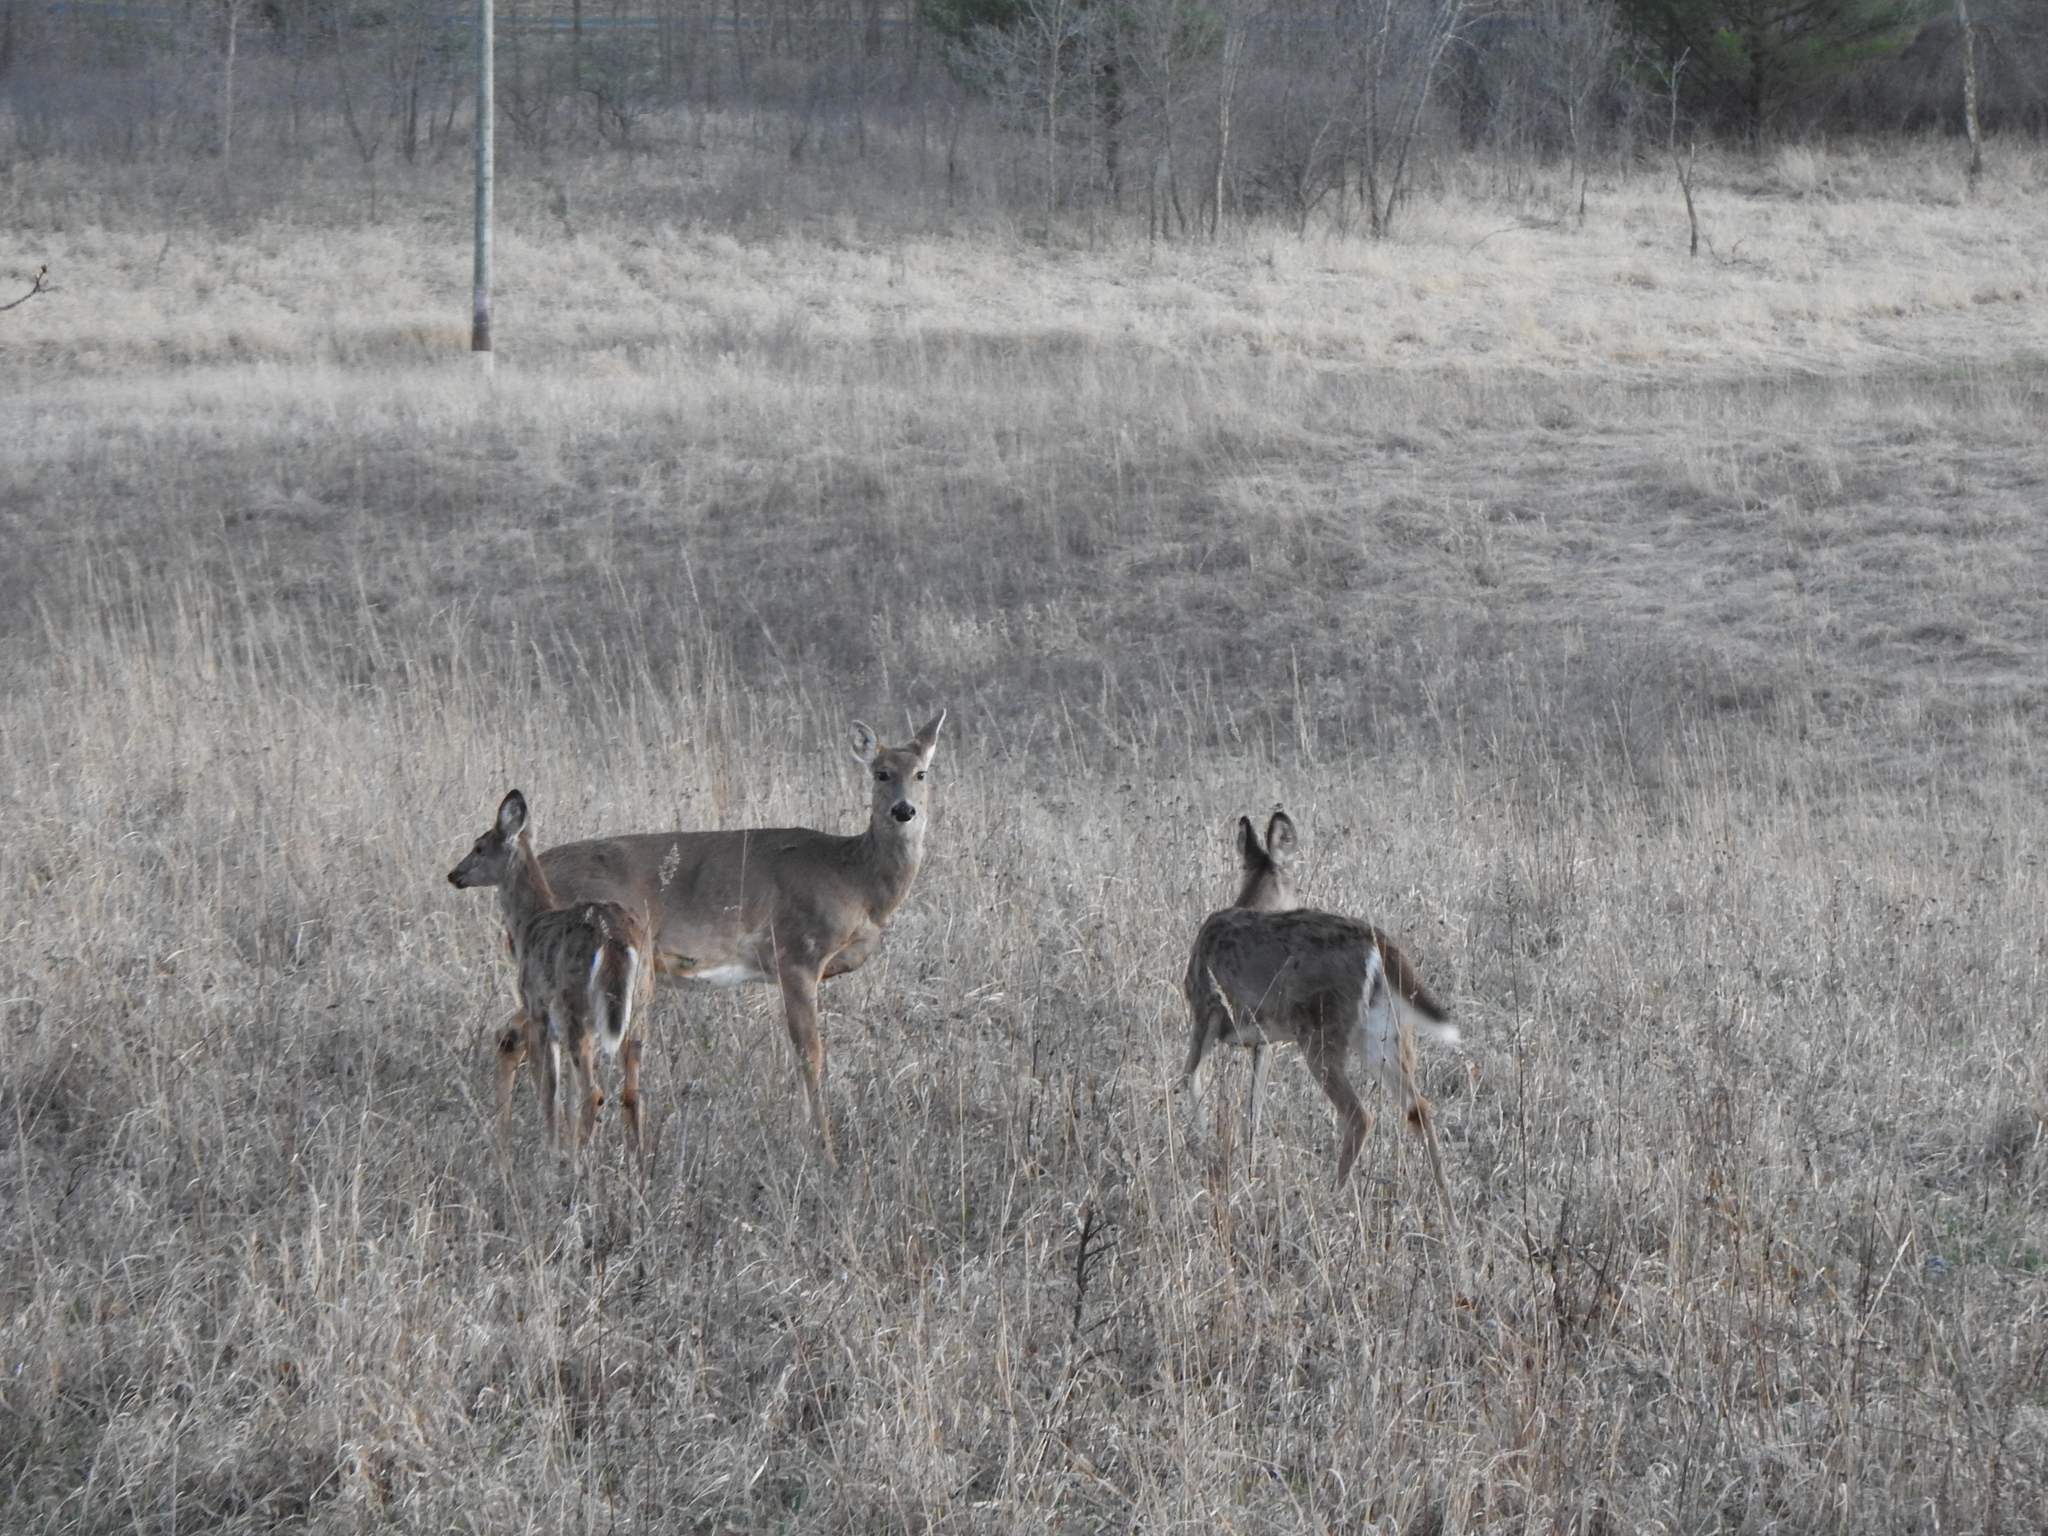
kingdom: Animalia
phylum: Chordata
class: Mammalia
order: Artiodactyla
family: Cervidae
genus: Odocoileus
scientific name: Odocoileus virginianus
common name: White-tailed deer
